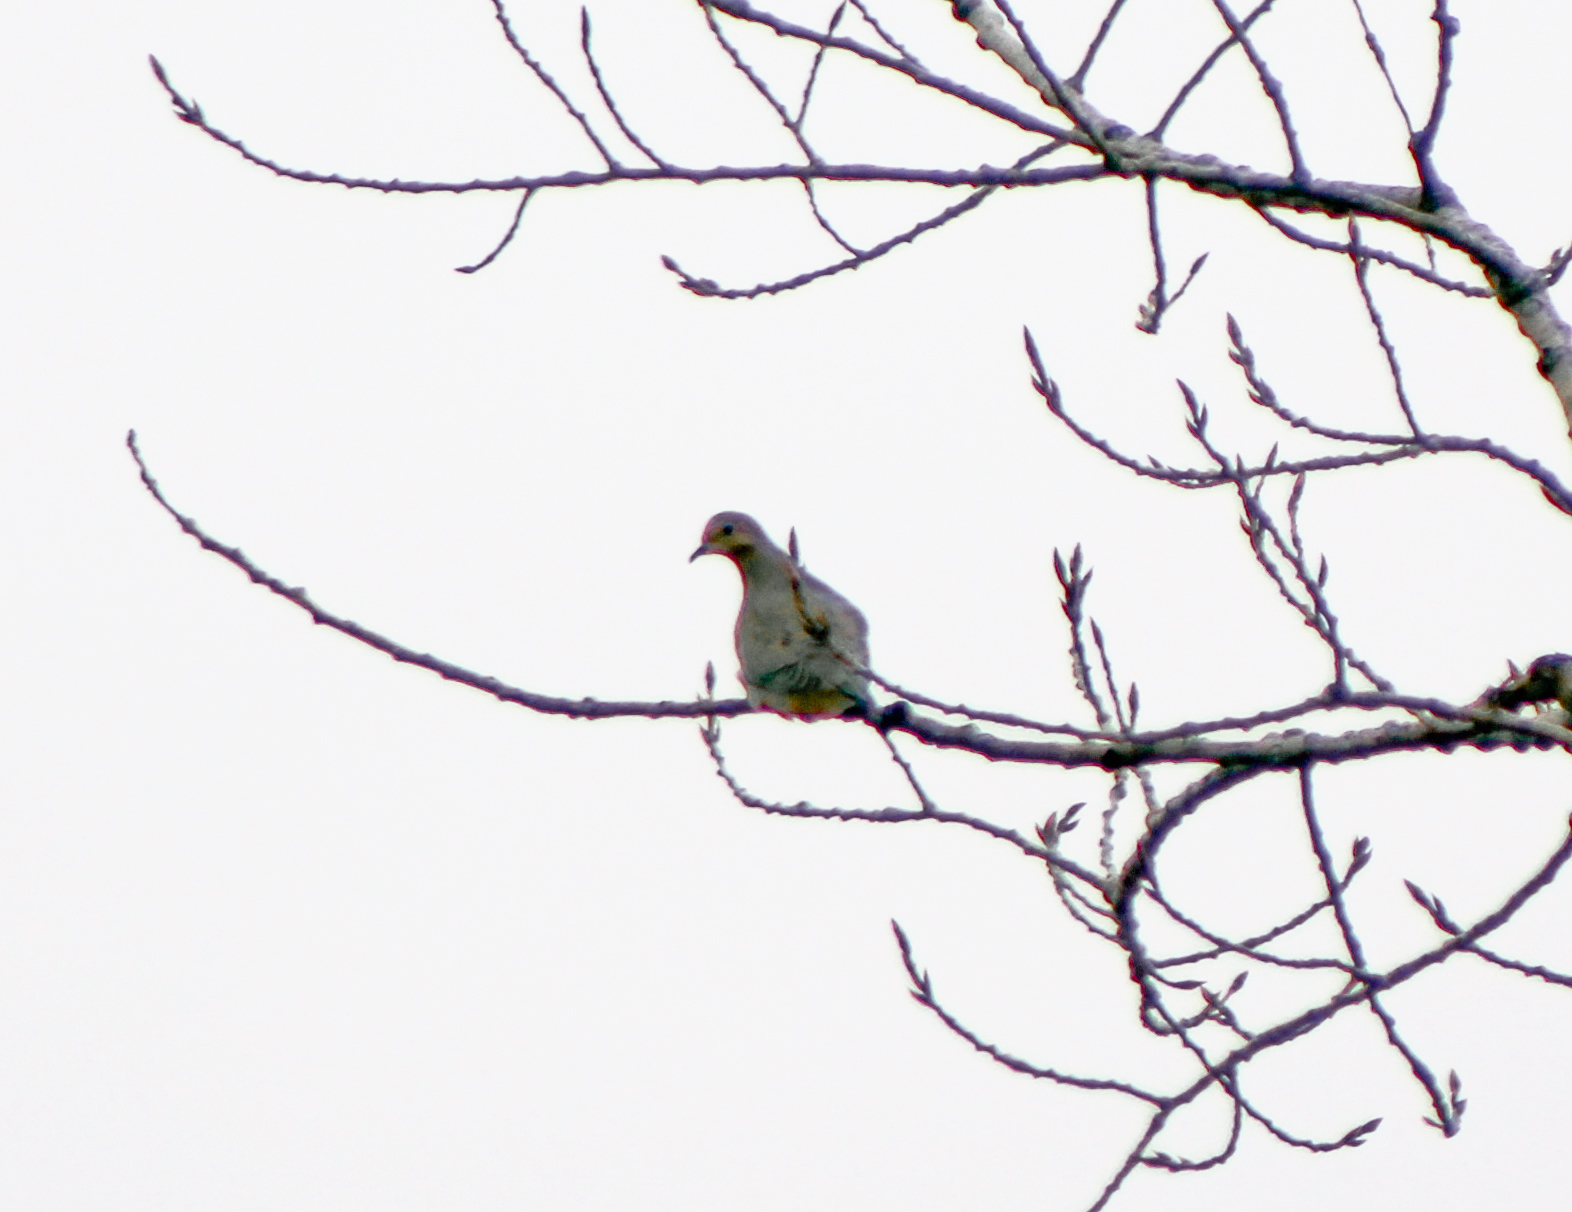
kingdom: Animalia
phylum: Chordata
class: Aves
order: Columbiformes
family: Columbidae
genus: Zenaida
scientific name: Zenaida macroura
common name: Mourning dove
